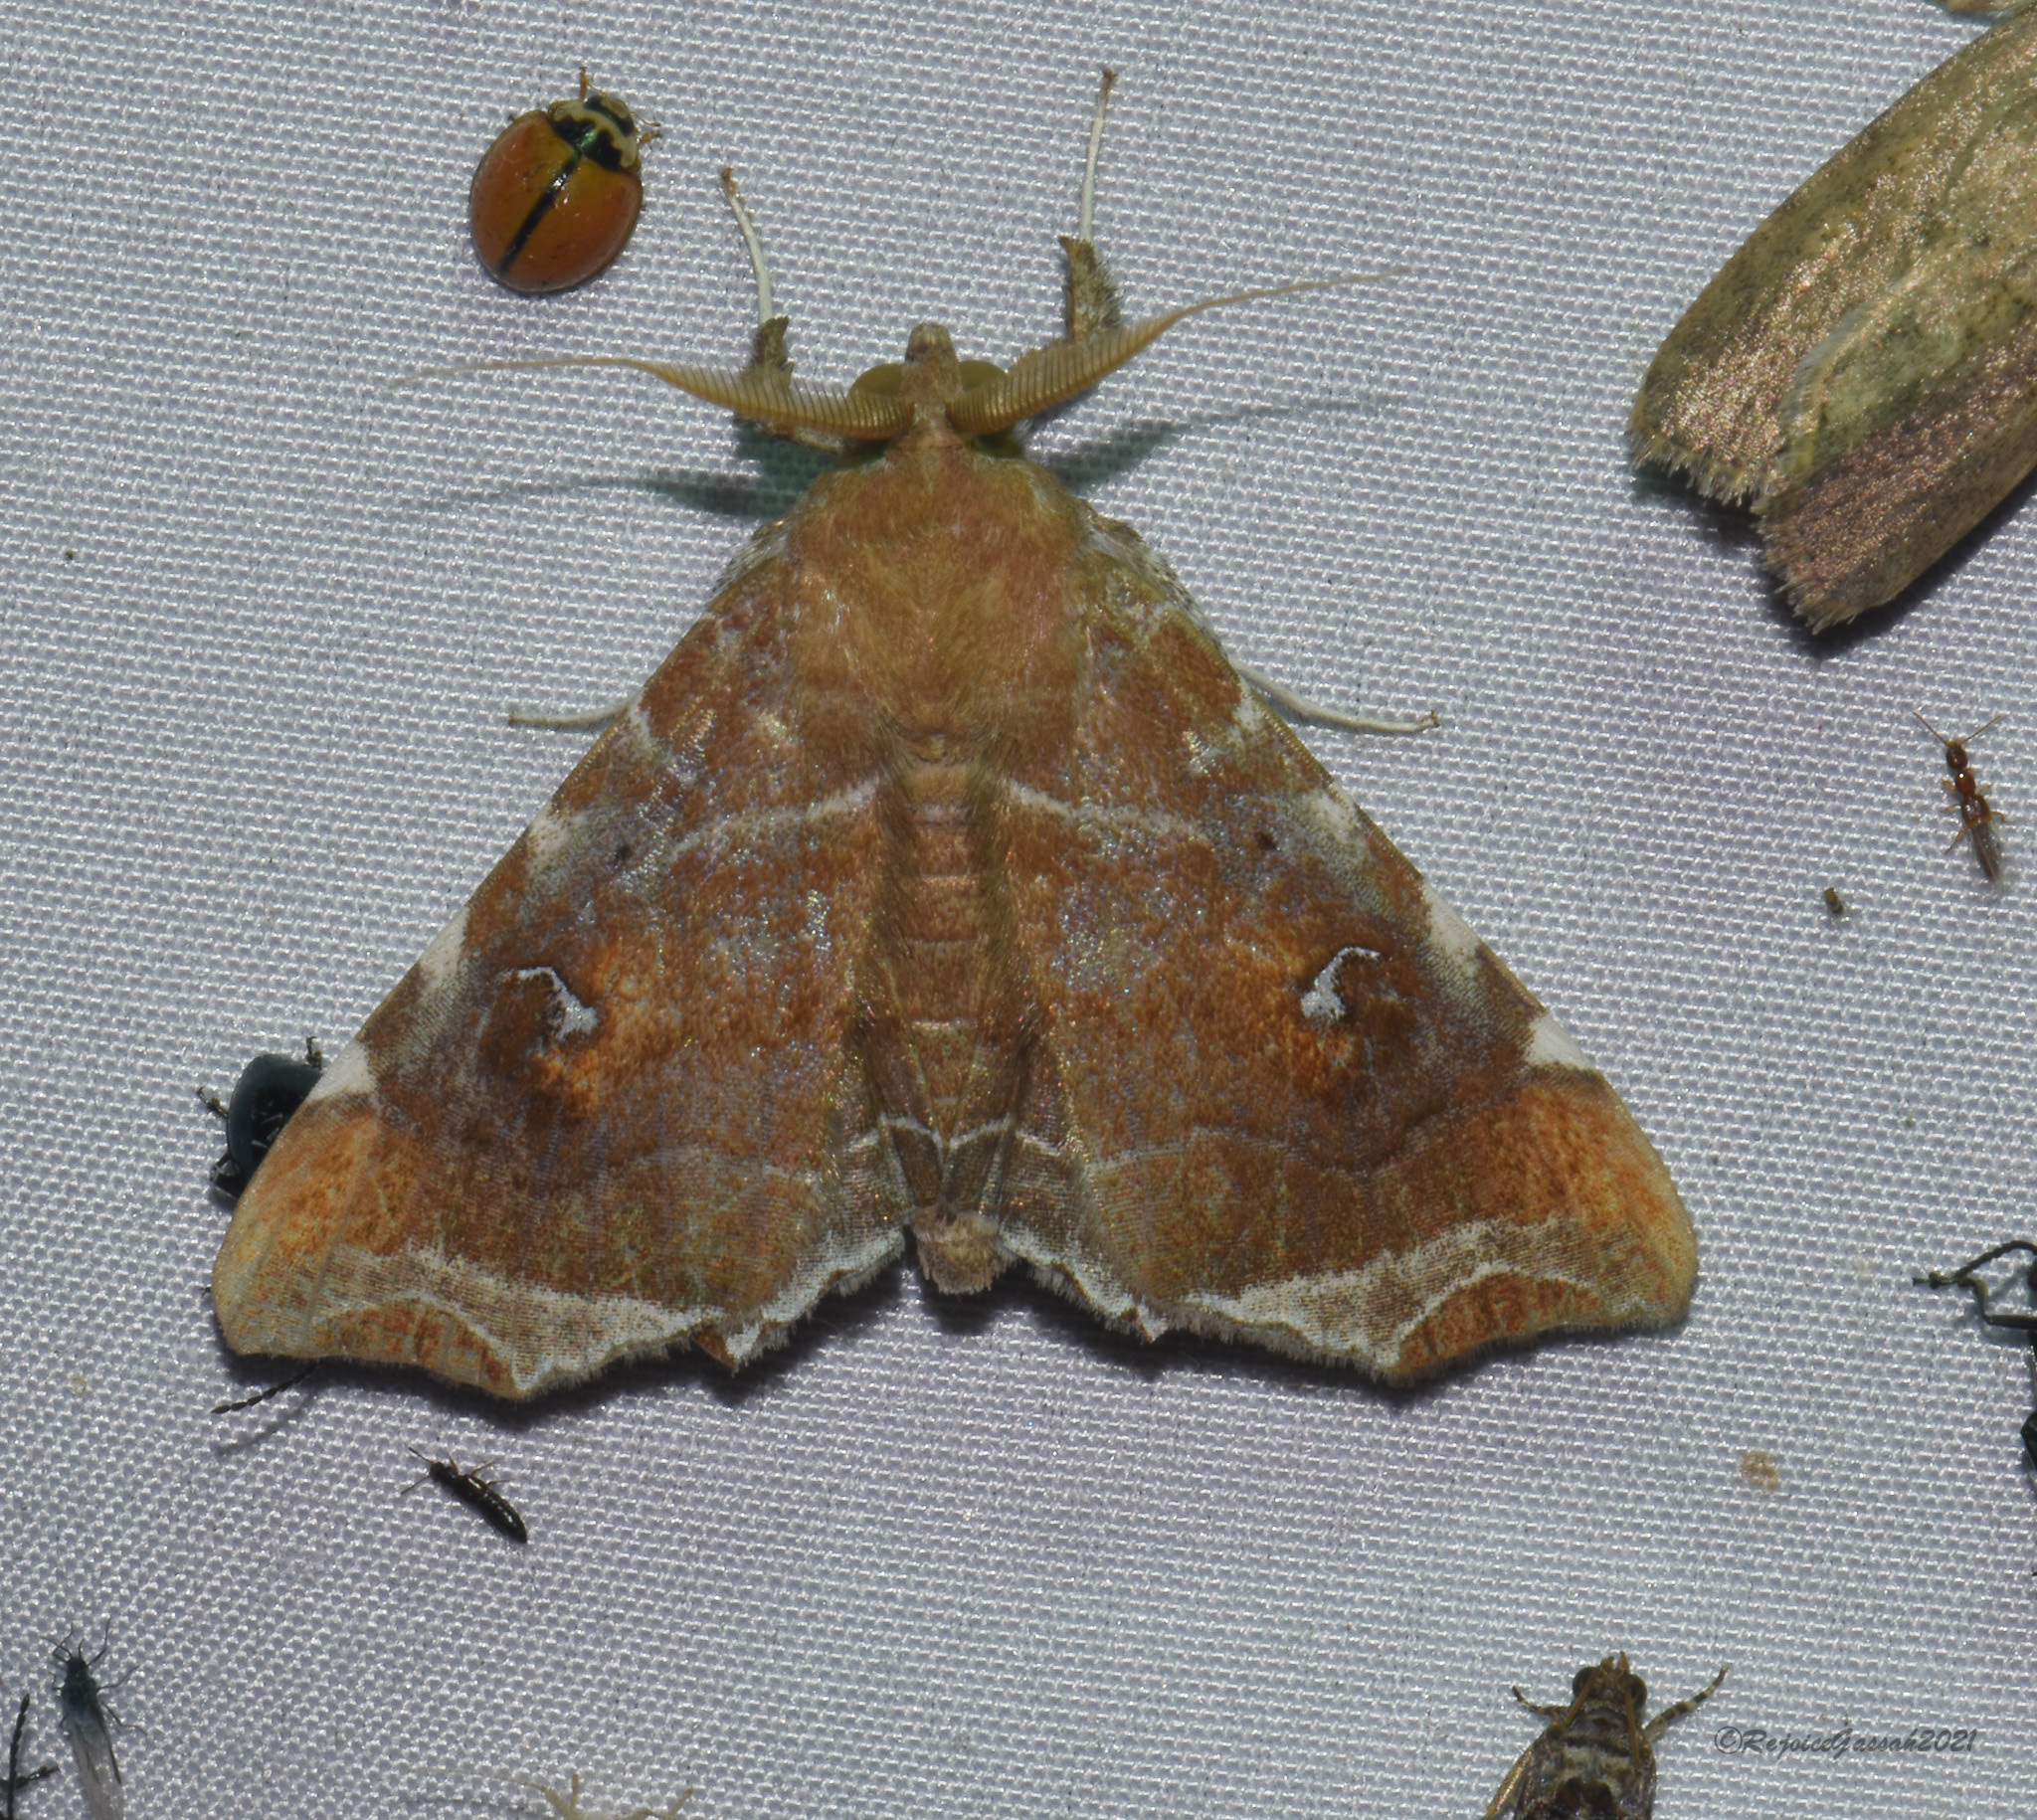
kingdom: Animalia
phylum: Arthropoda
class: Insecta
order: Lepidoptera
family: Erebidae
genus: Episparis
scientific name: Episparis liturata
